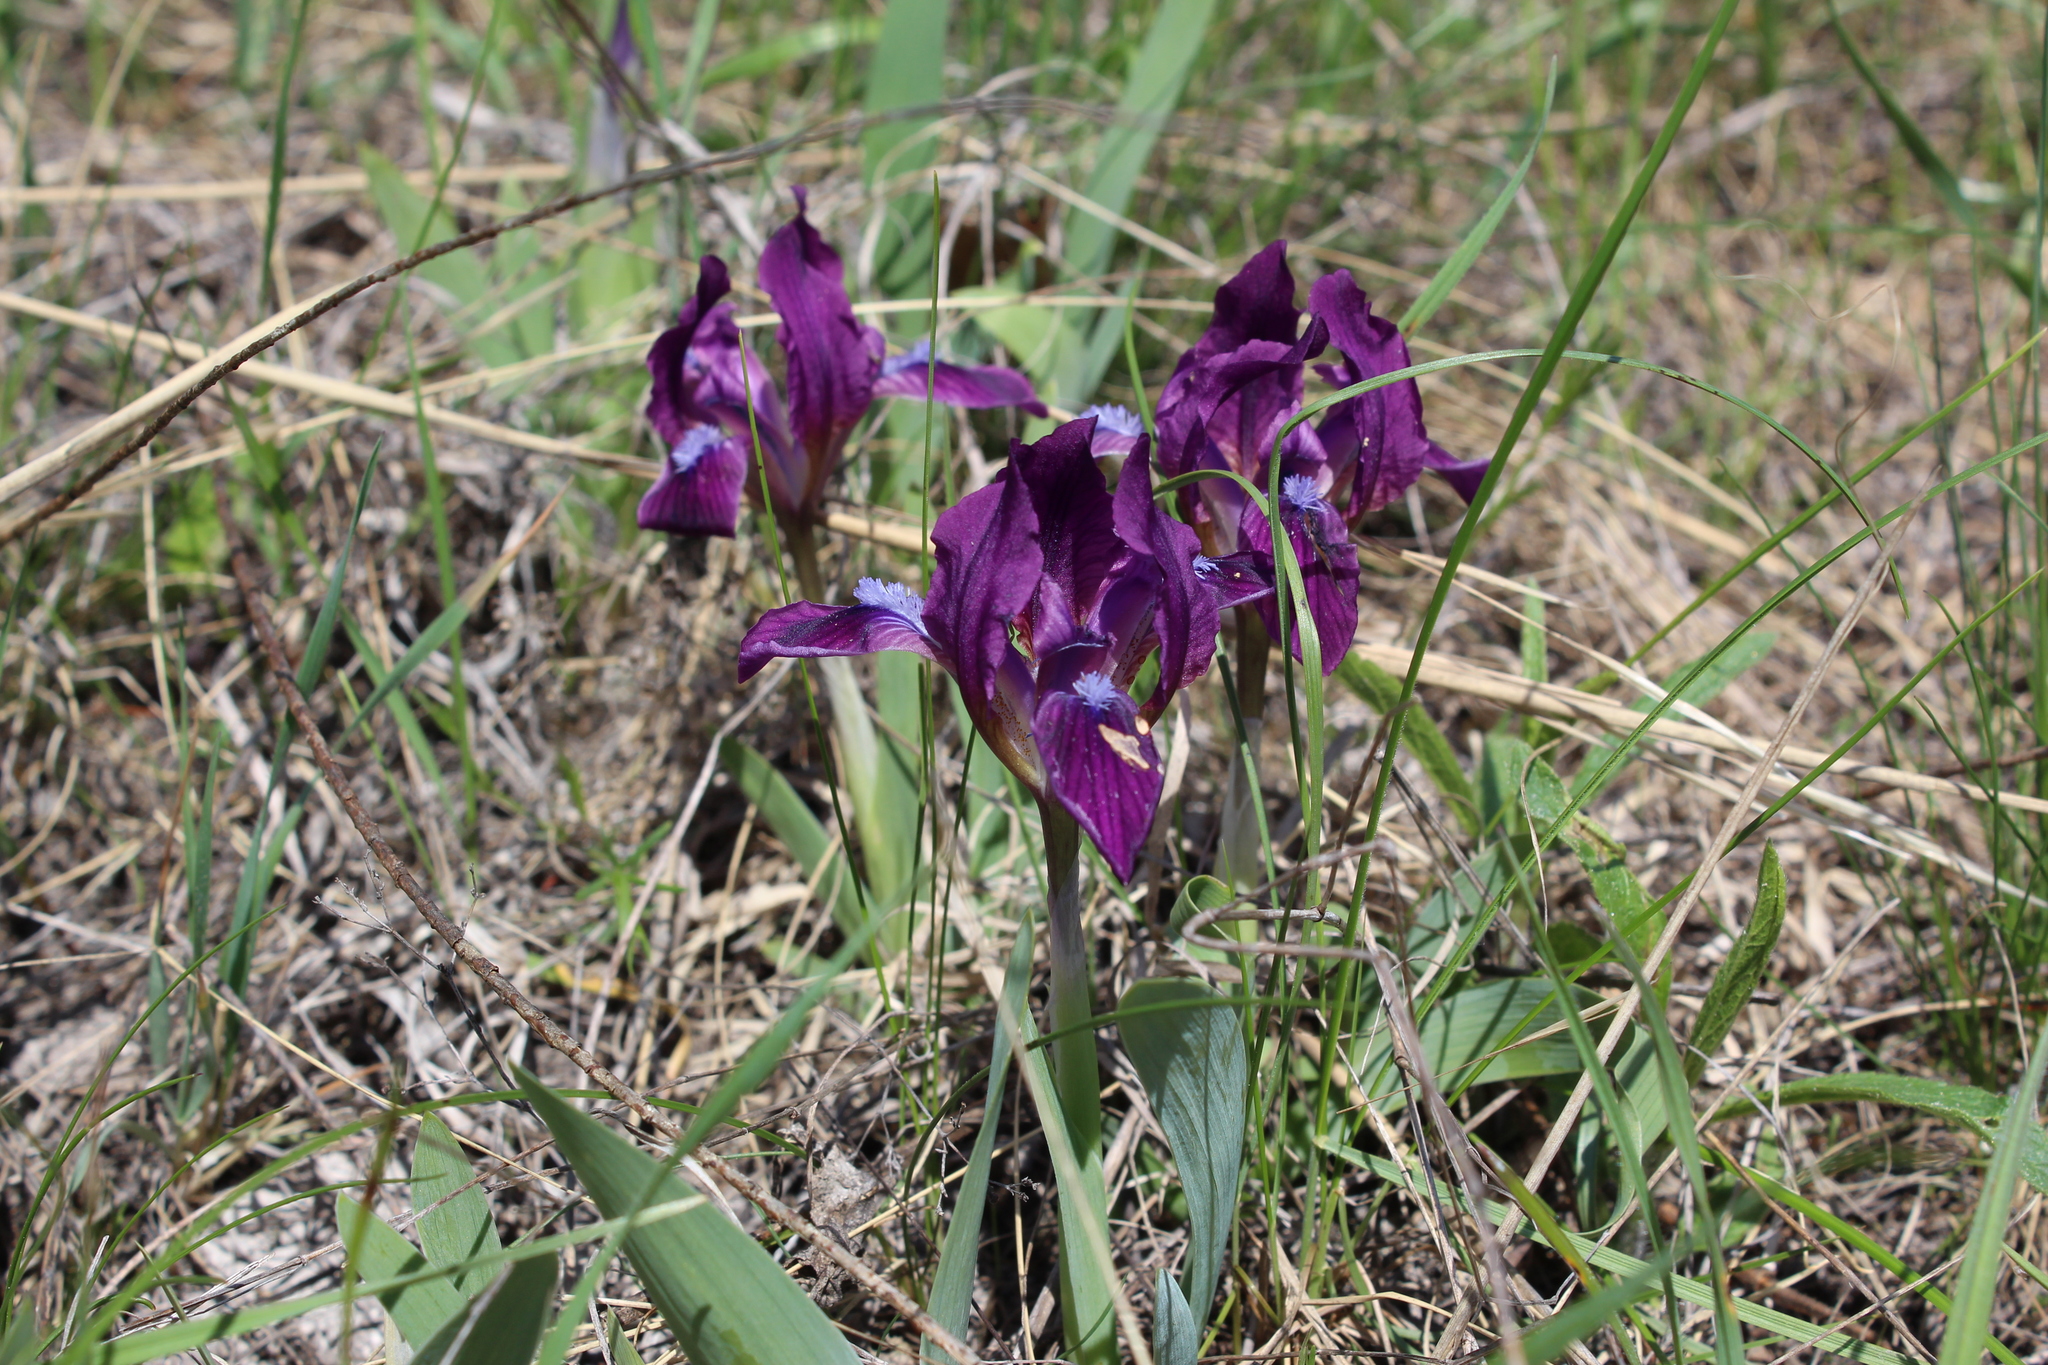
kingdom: Plantae
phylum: Tracheophyta
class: Liliopsida
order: Asparagales
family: Iridaceae
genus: Iris
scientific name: Iris pumila
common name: Dwarf iris
